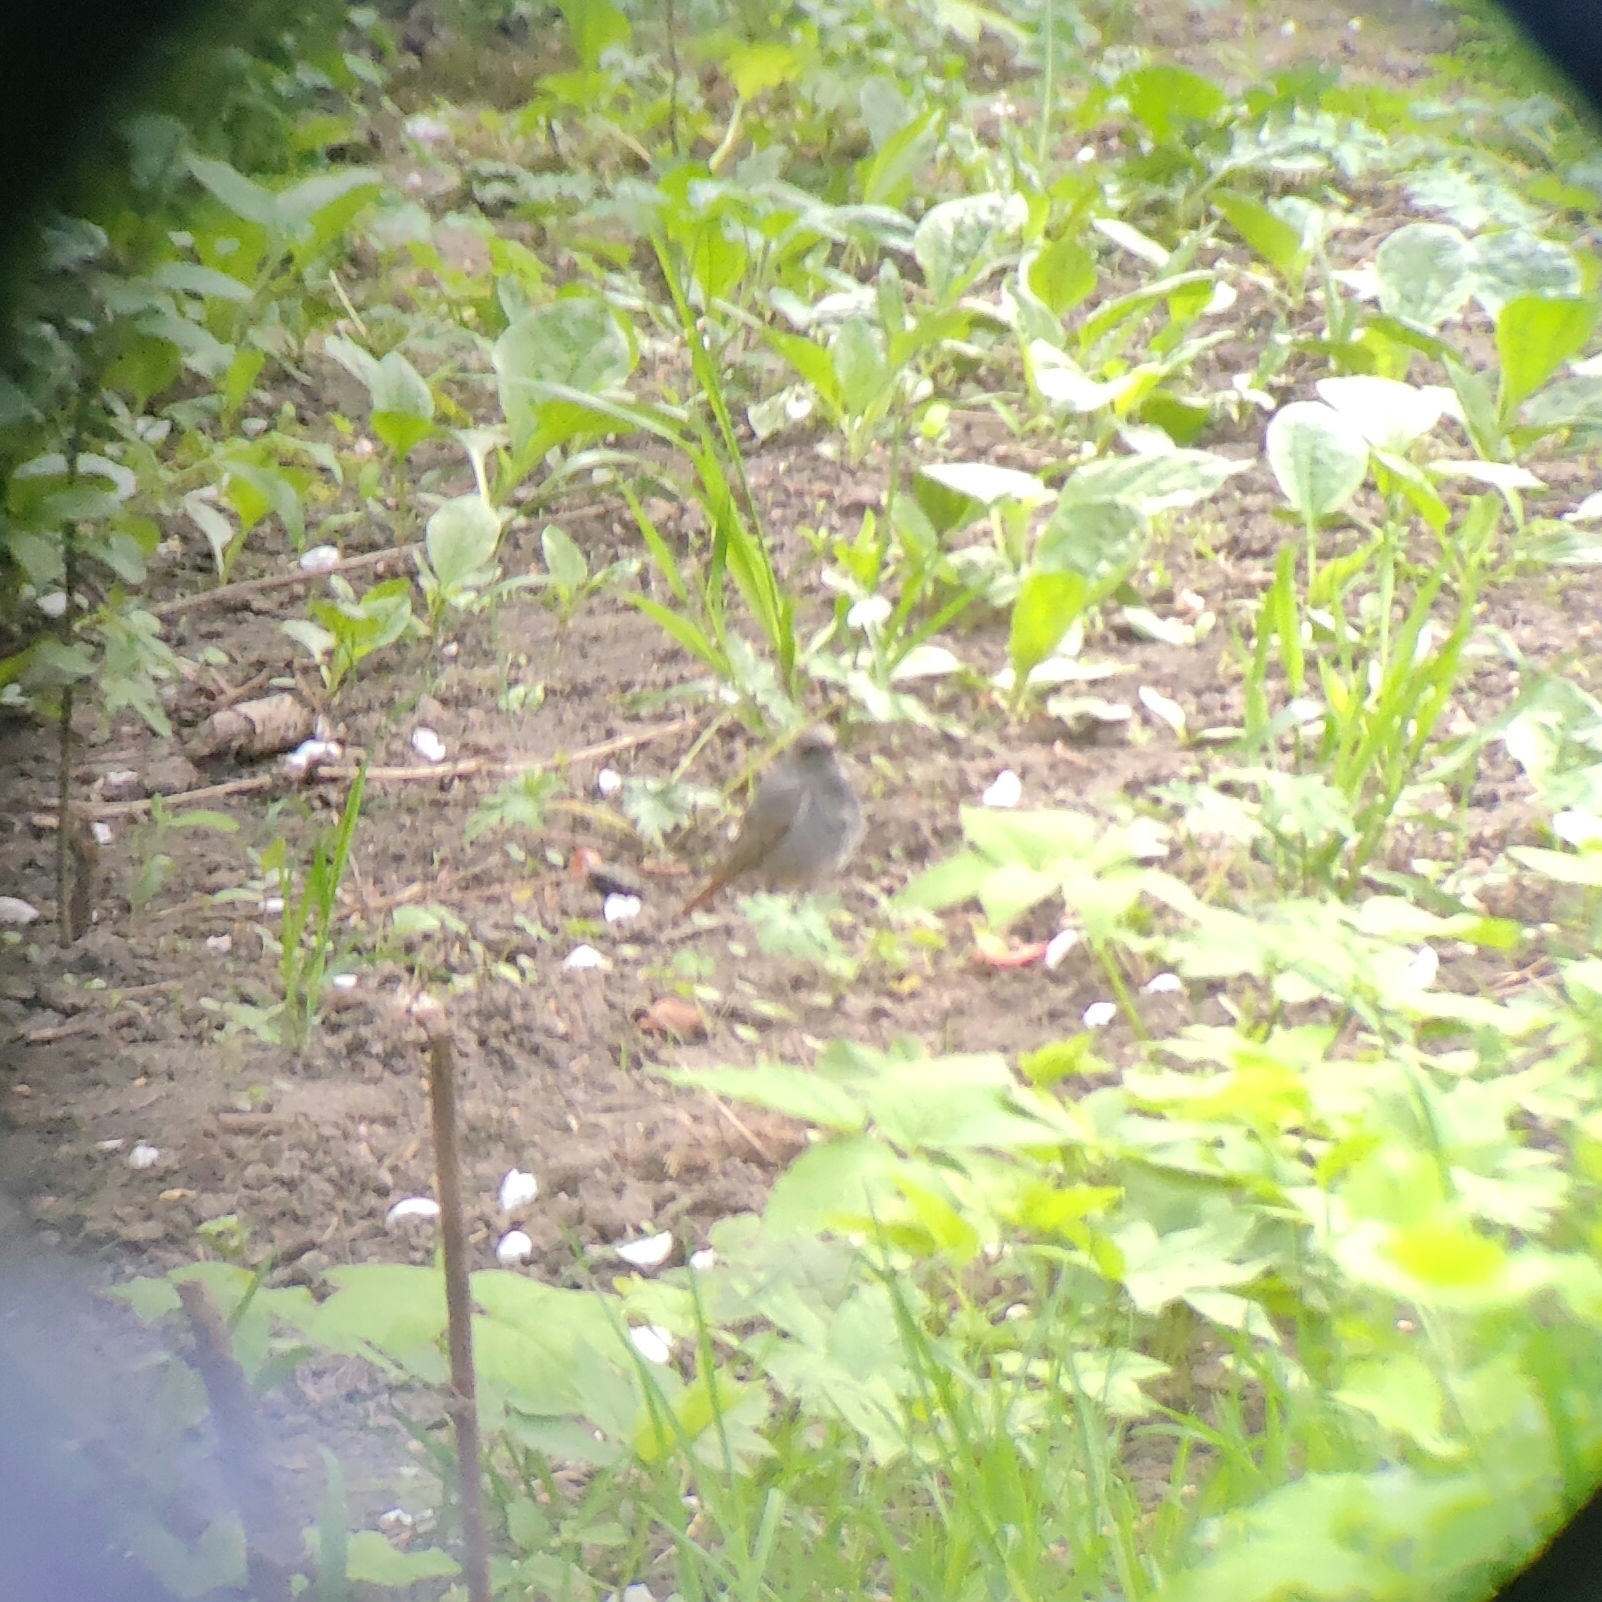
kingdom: Animalia
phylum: Chordata
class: Aves
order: Passeriformes
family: Muscicapidae
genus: Phoenicurus
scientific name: Phoenicurus ochruros
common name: Black redstart
